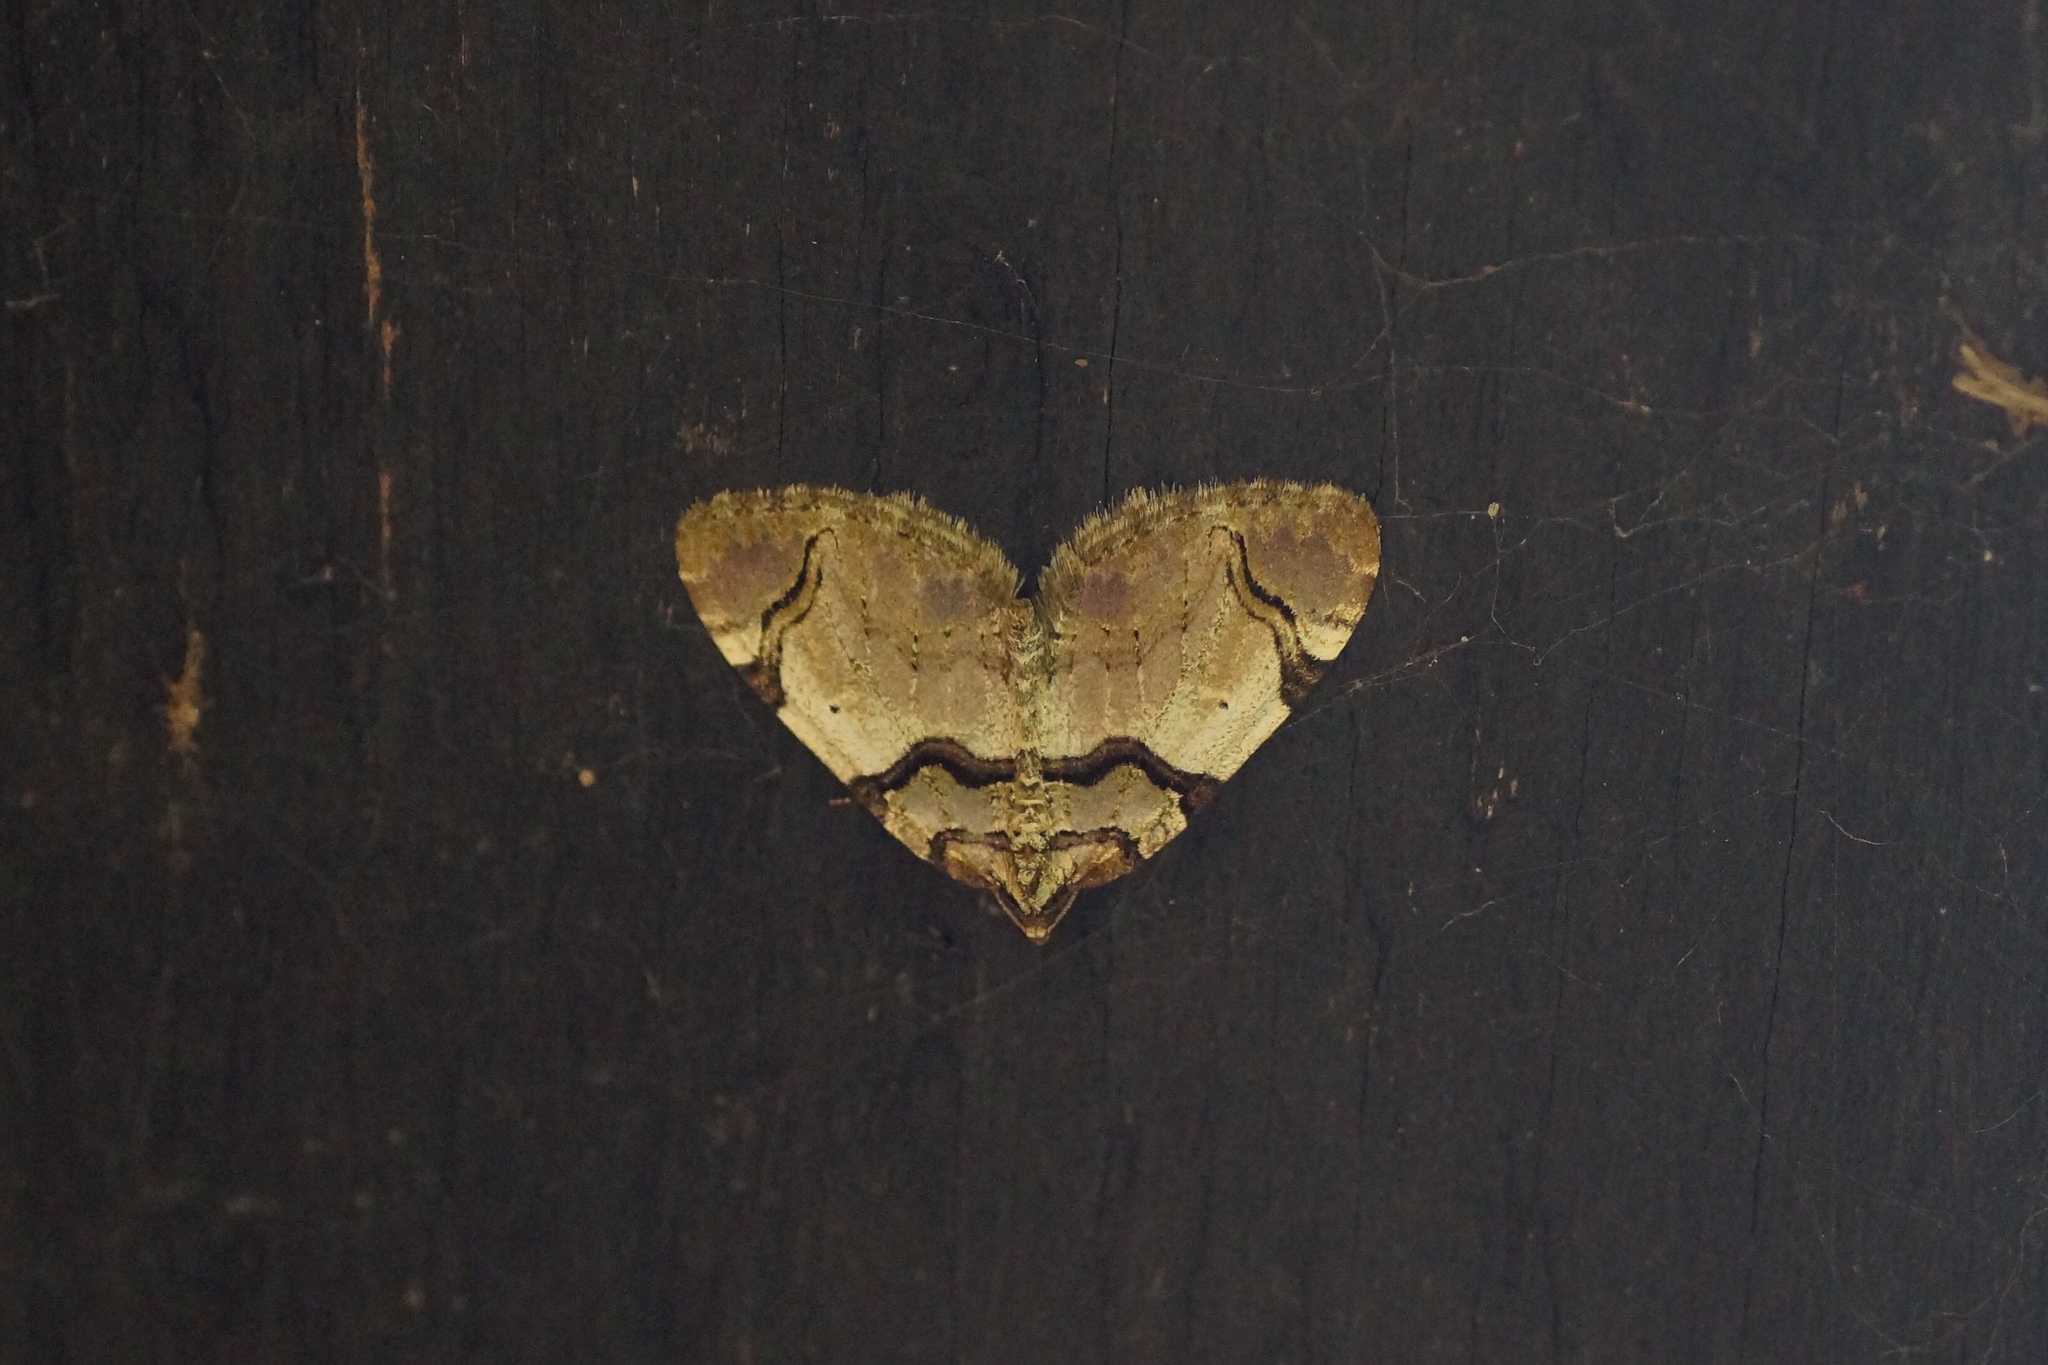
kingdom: Animalia
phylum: Arthropoda
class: Insecta
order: Lepidoptera
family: Geometridae
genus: Anticlea
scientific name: Anticlea derivata
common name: Streamer
